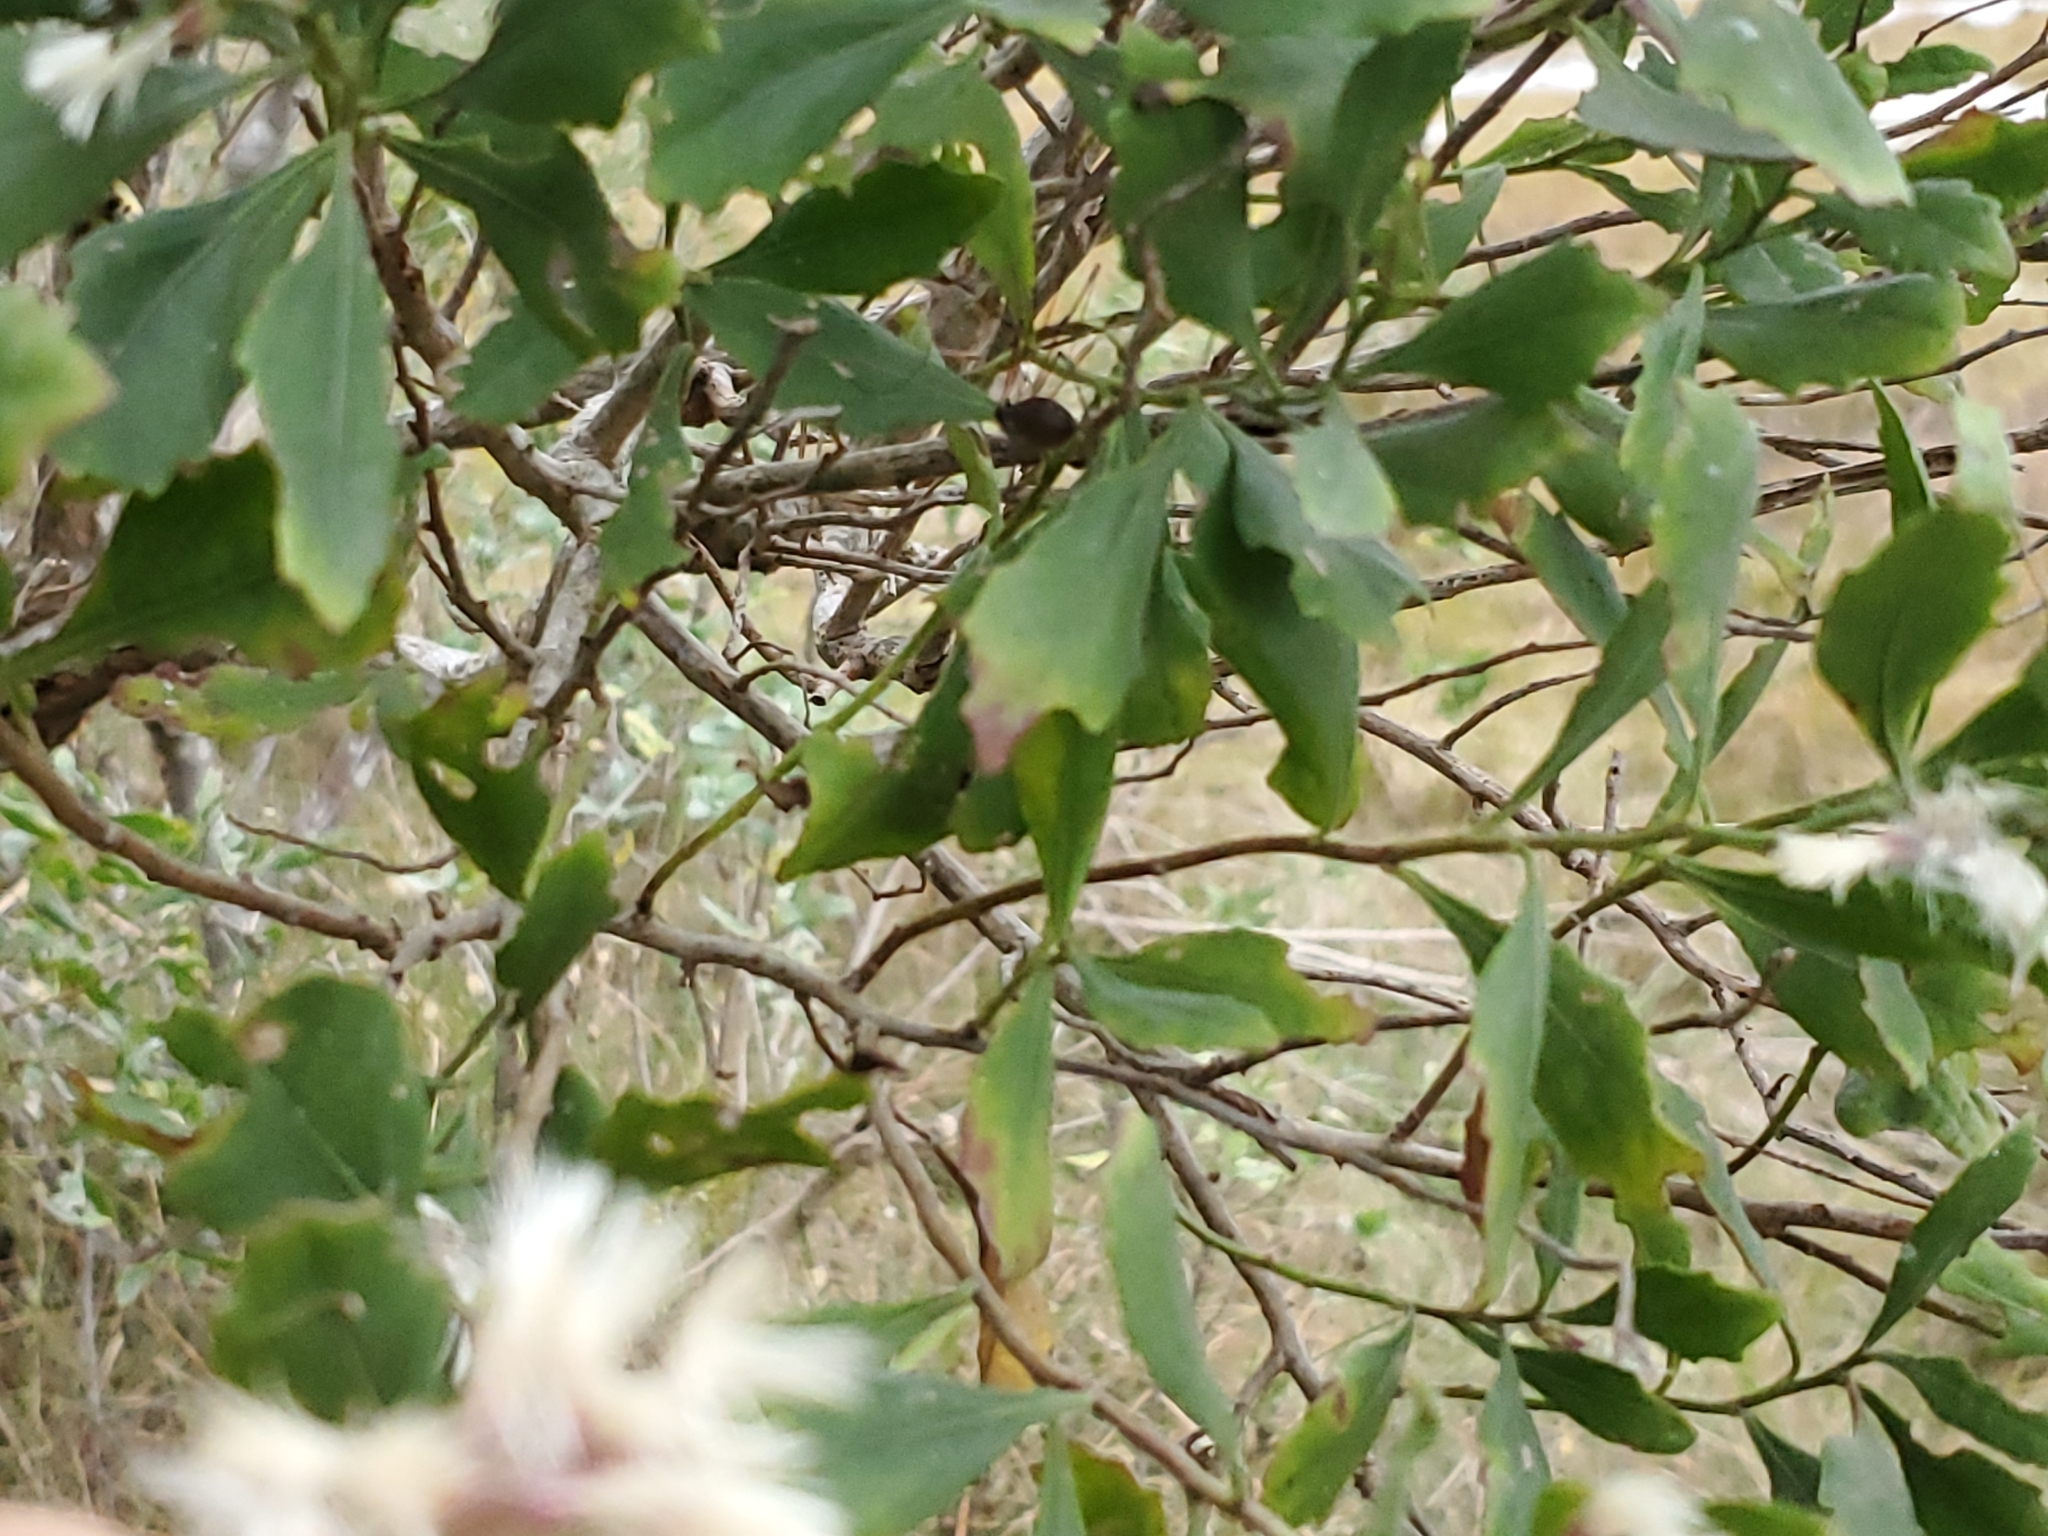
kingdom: Plantae
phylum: Tracheophyta
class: Magnoliopsida
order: Asterales
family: Asteraceae
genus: Baccharis
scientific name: Baccharis halimifolia
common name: Eastern baccharis
